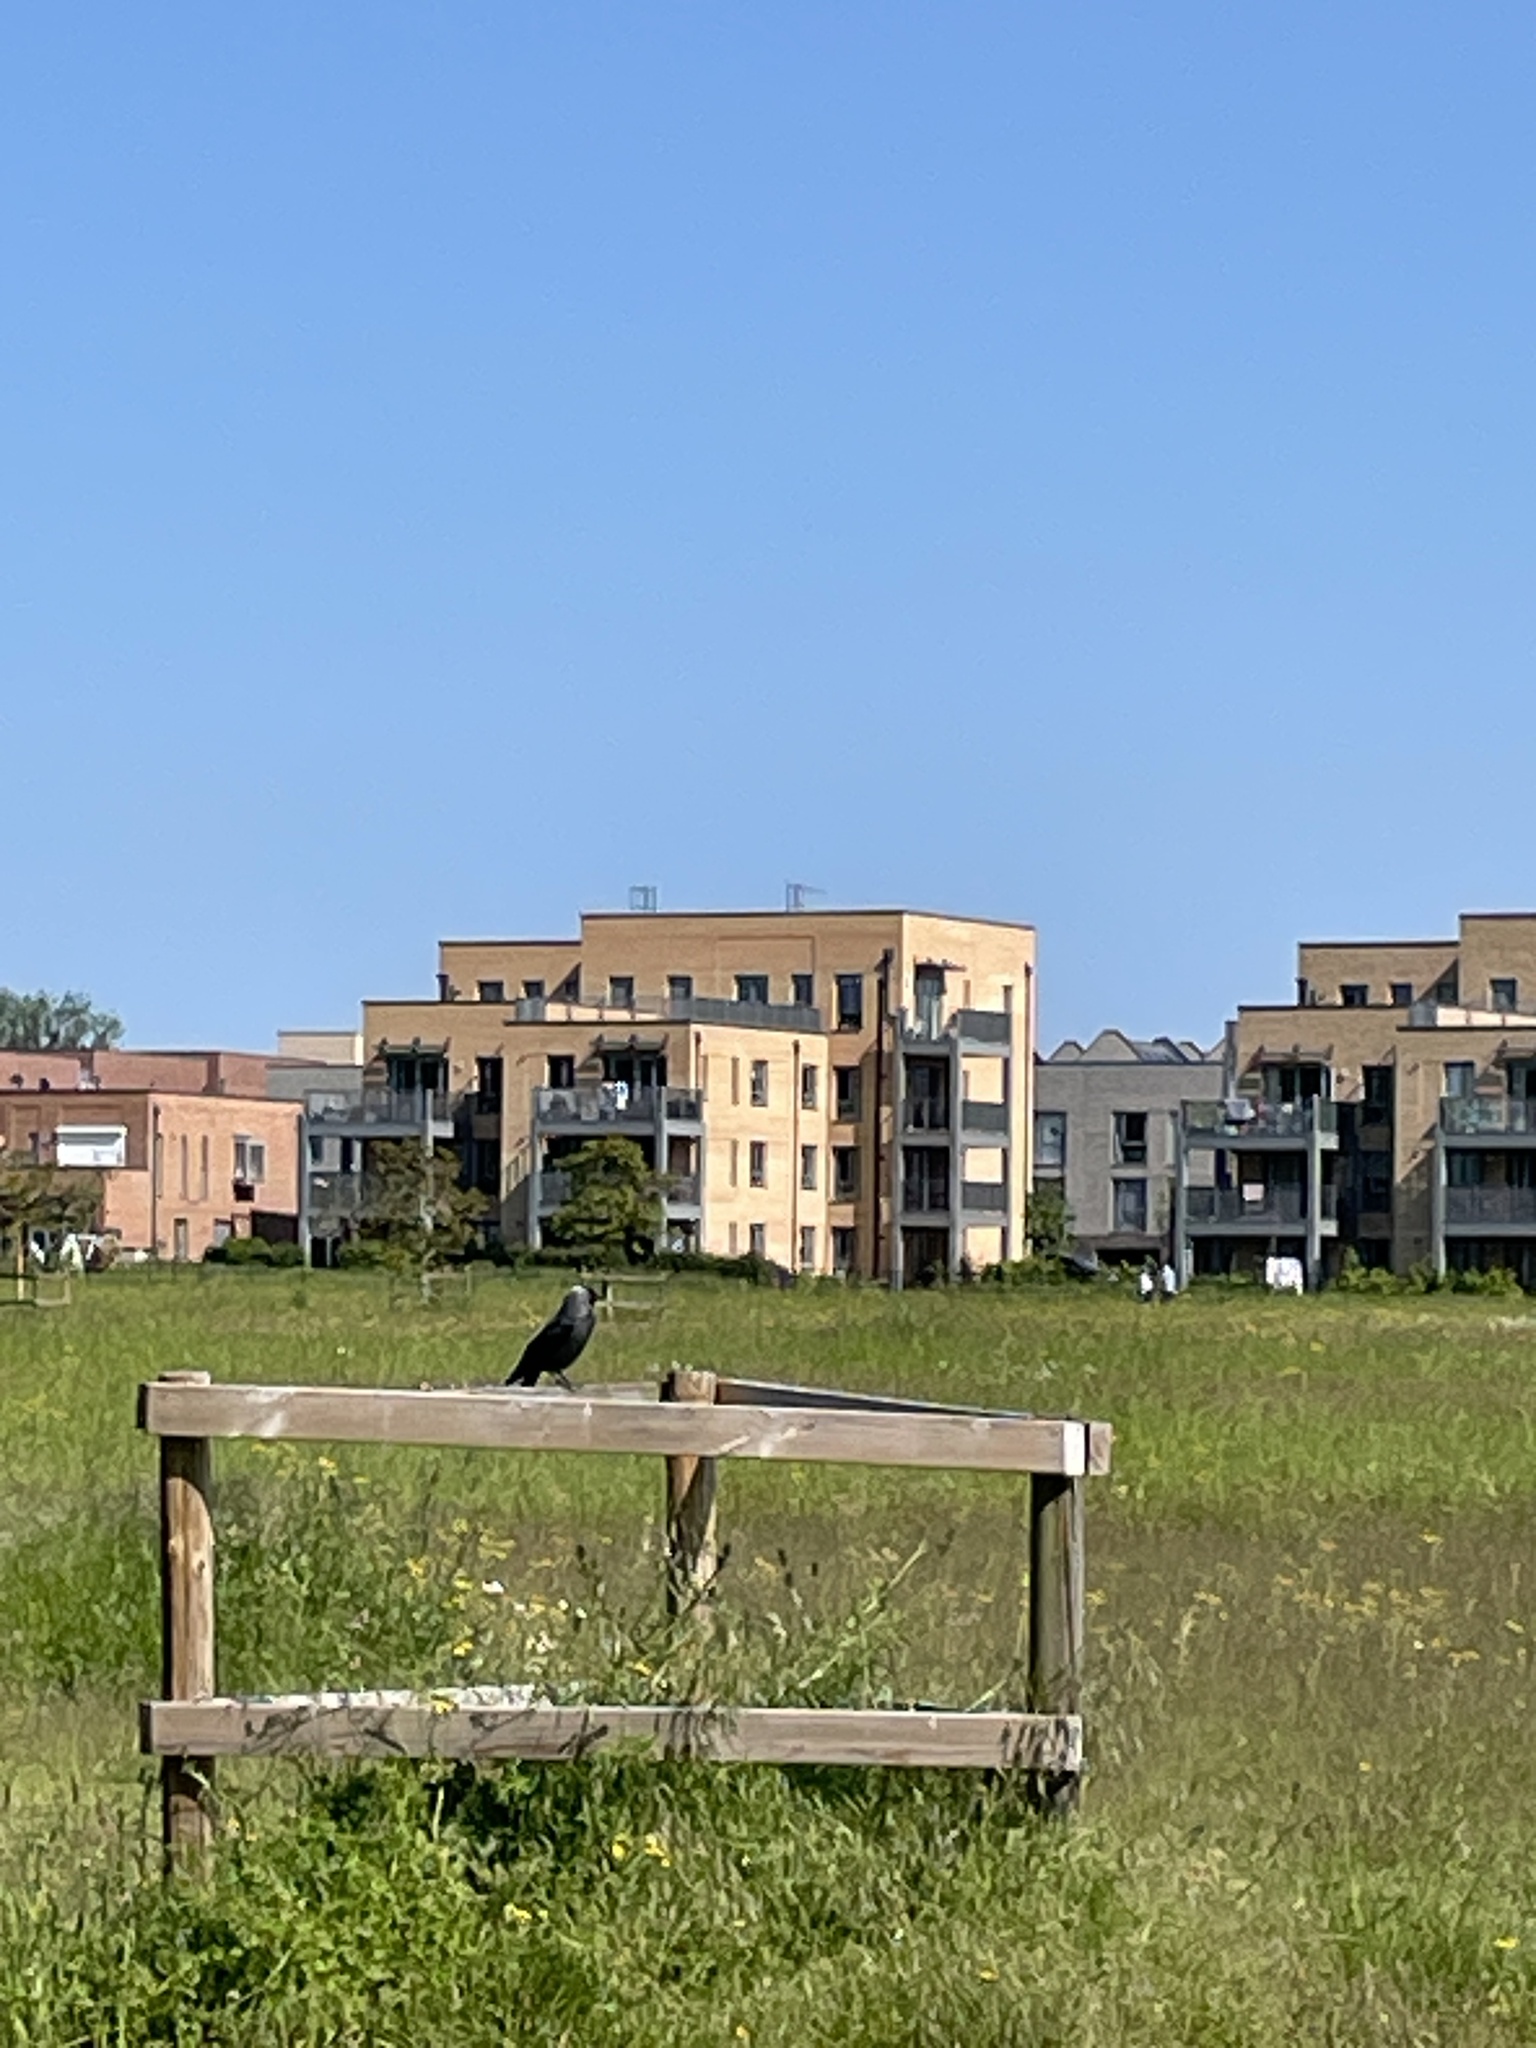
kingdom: Animalia
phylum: Chordata
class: Aves
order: Passeriformes
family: Corvidae
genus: Coloeus
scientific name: Coloeus monedula
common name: Western jackdaw
